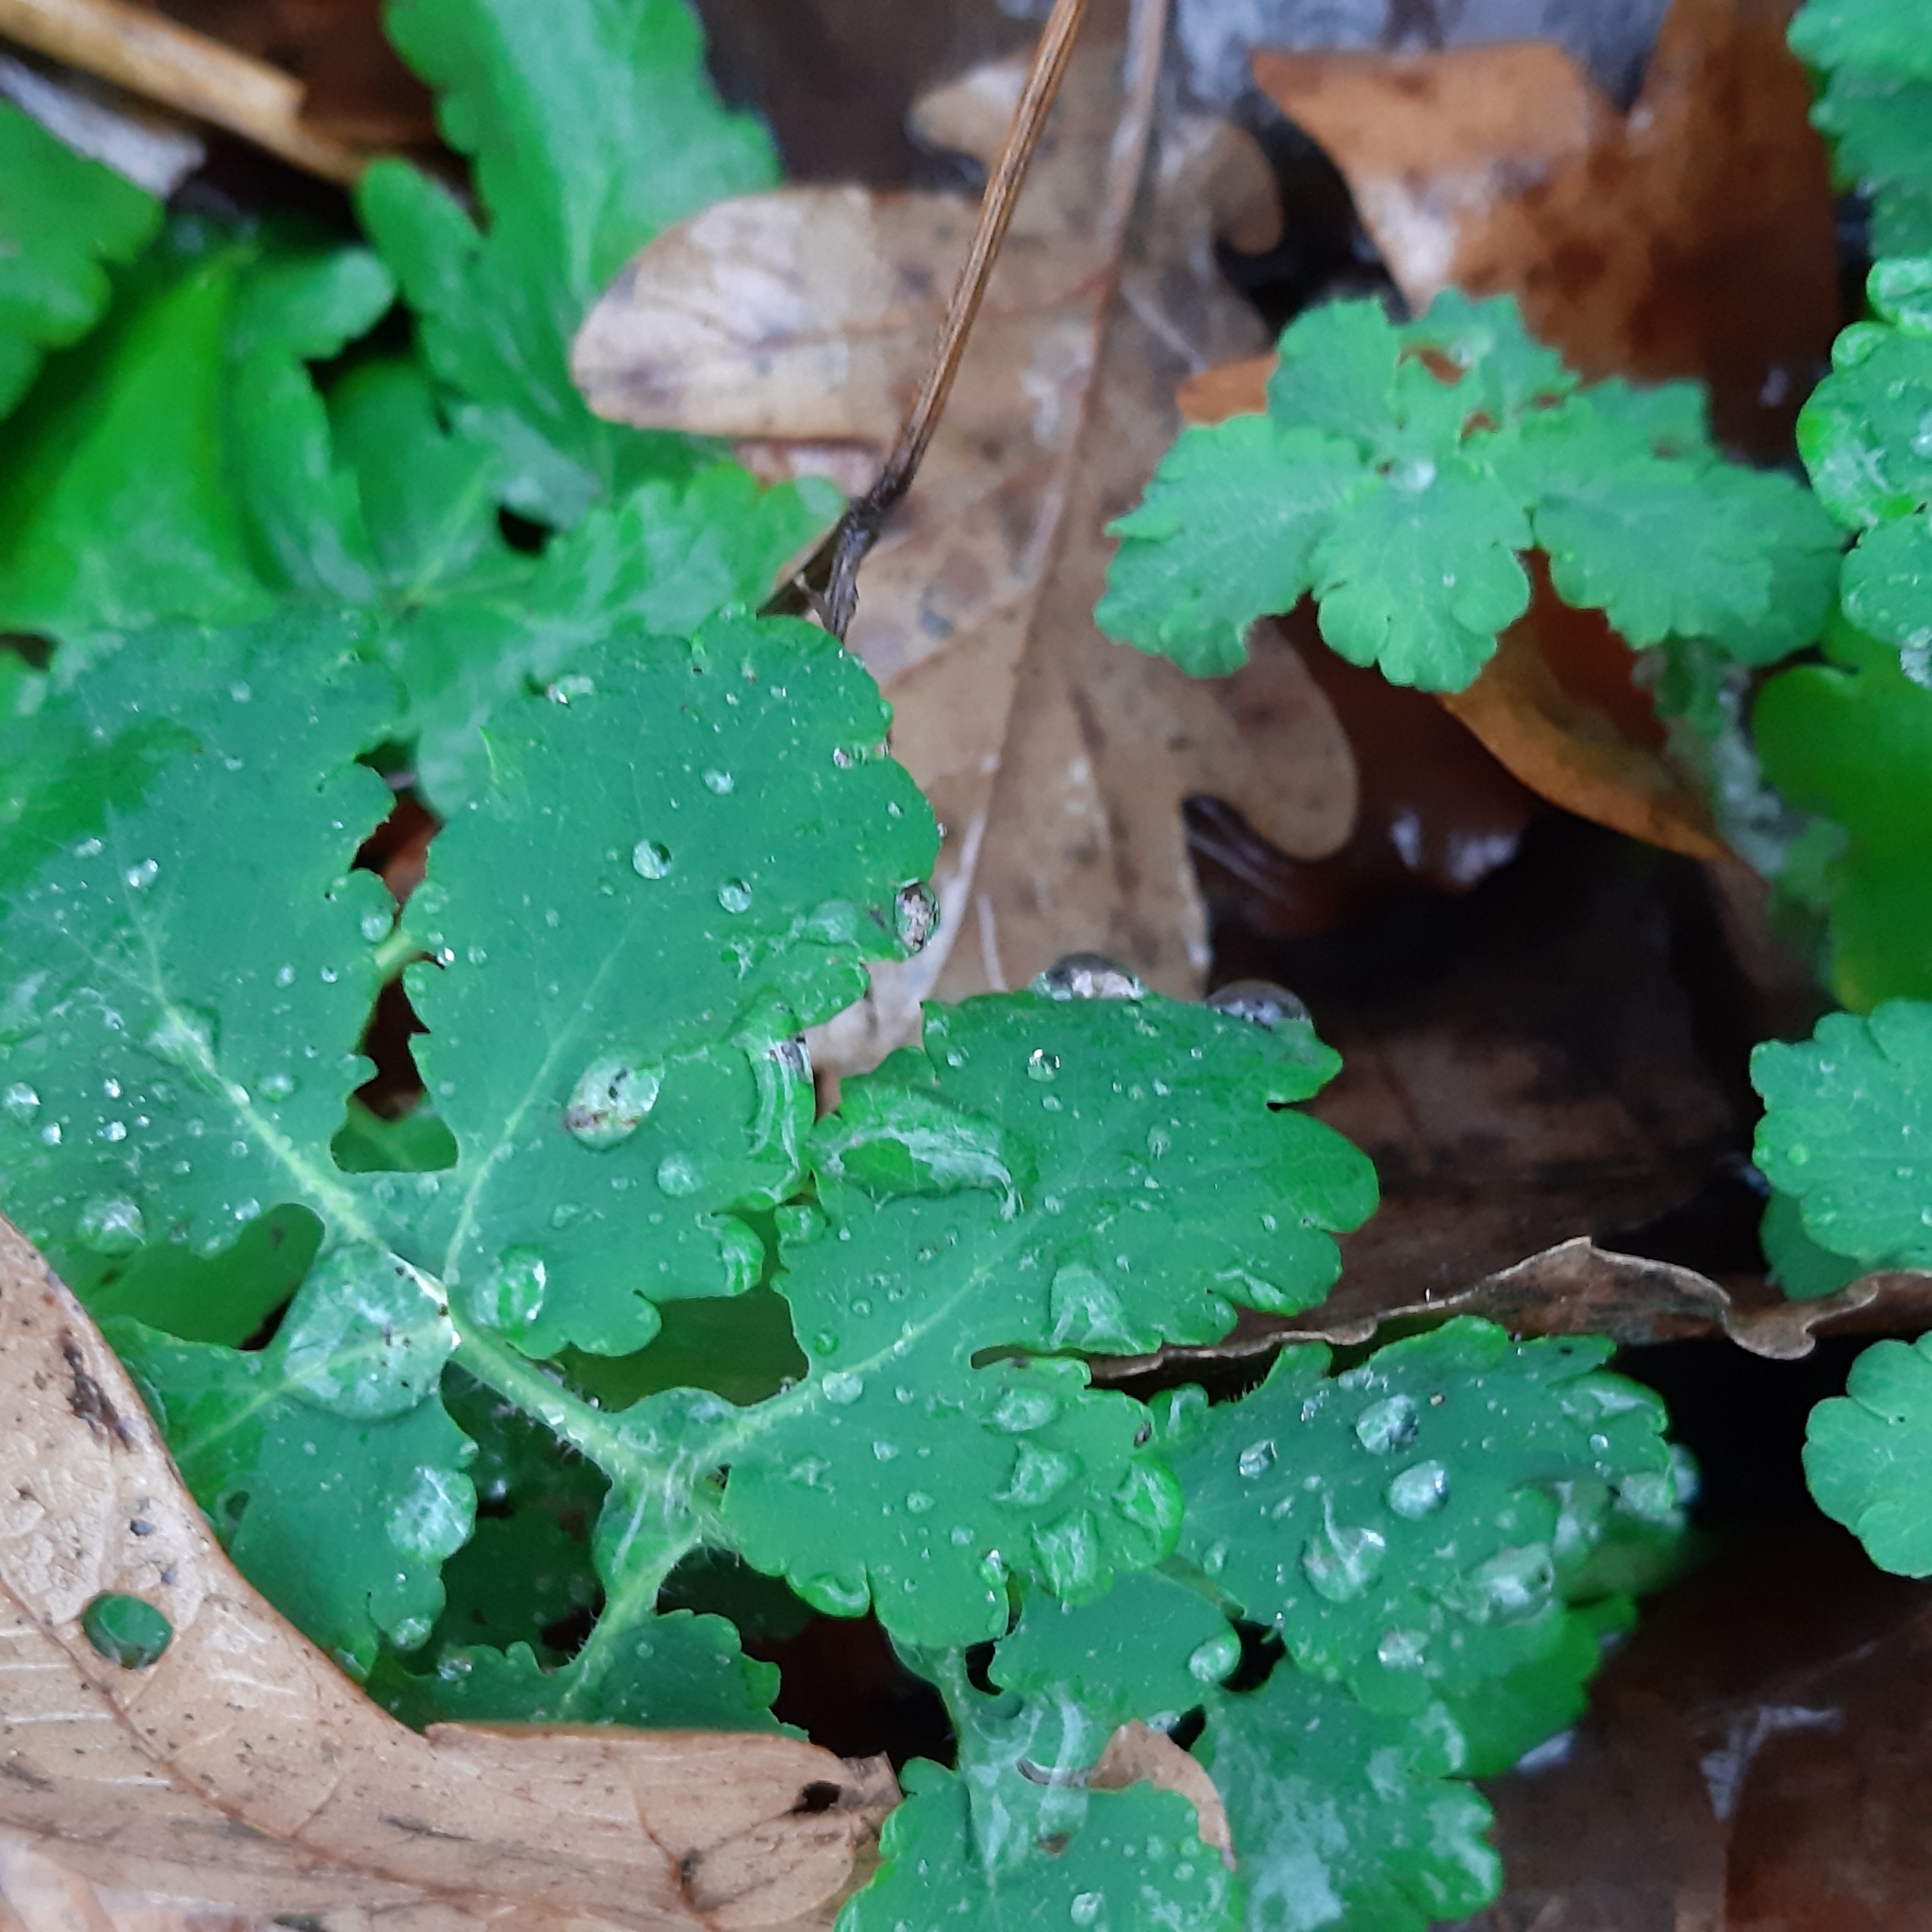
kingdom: Plantae
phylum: Tracheophyta
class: Magnoliopsida
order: Ranunculales
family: Papaveraceae
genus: Chelidonium
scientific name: Chelidonium majus
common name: Greater celandine
